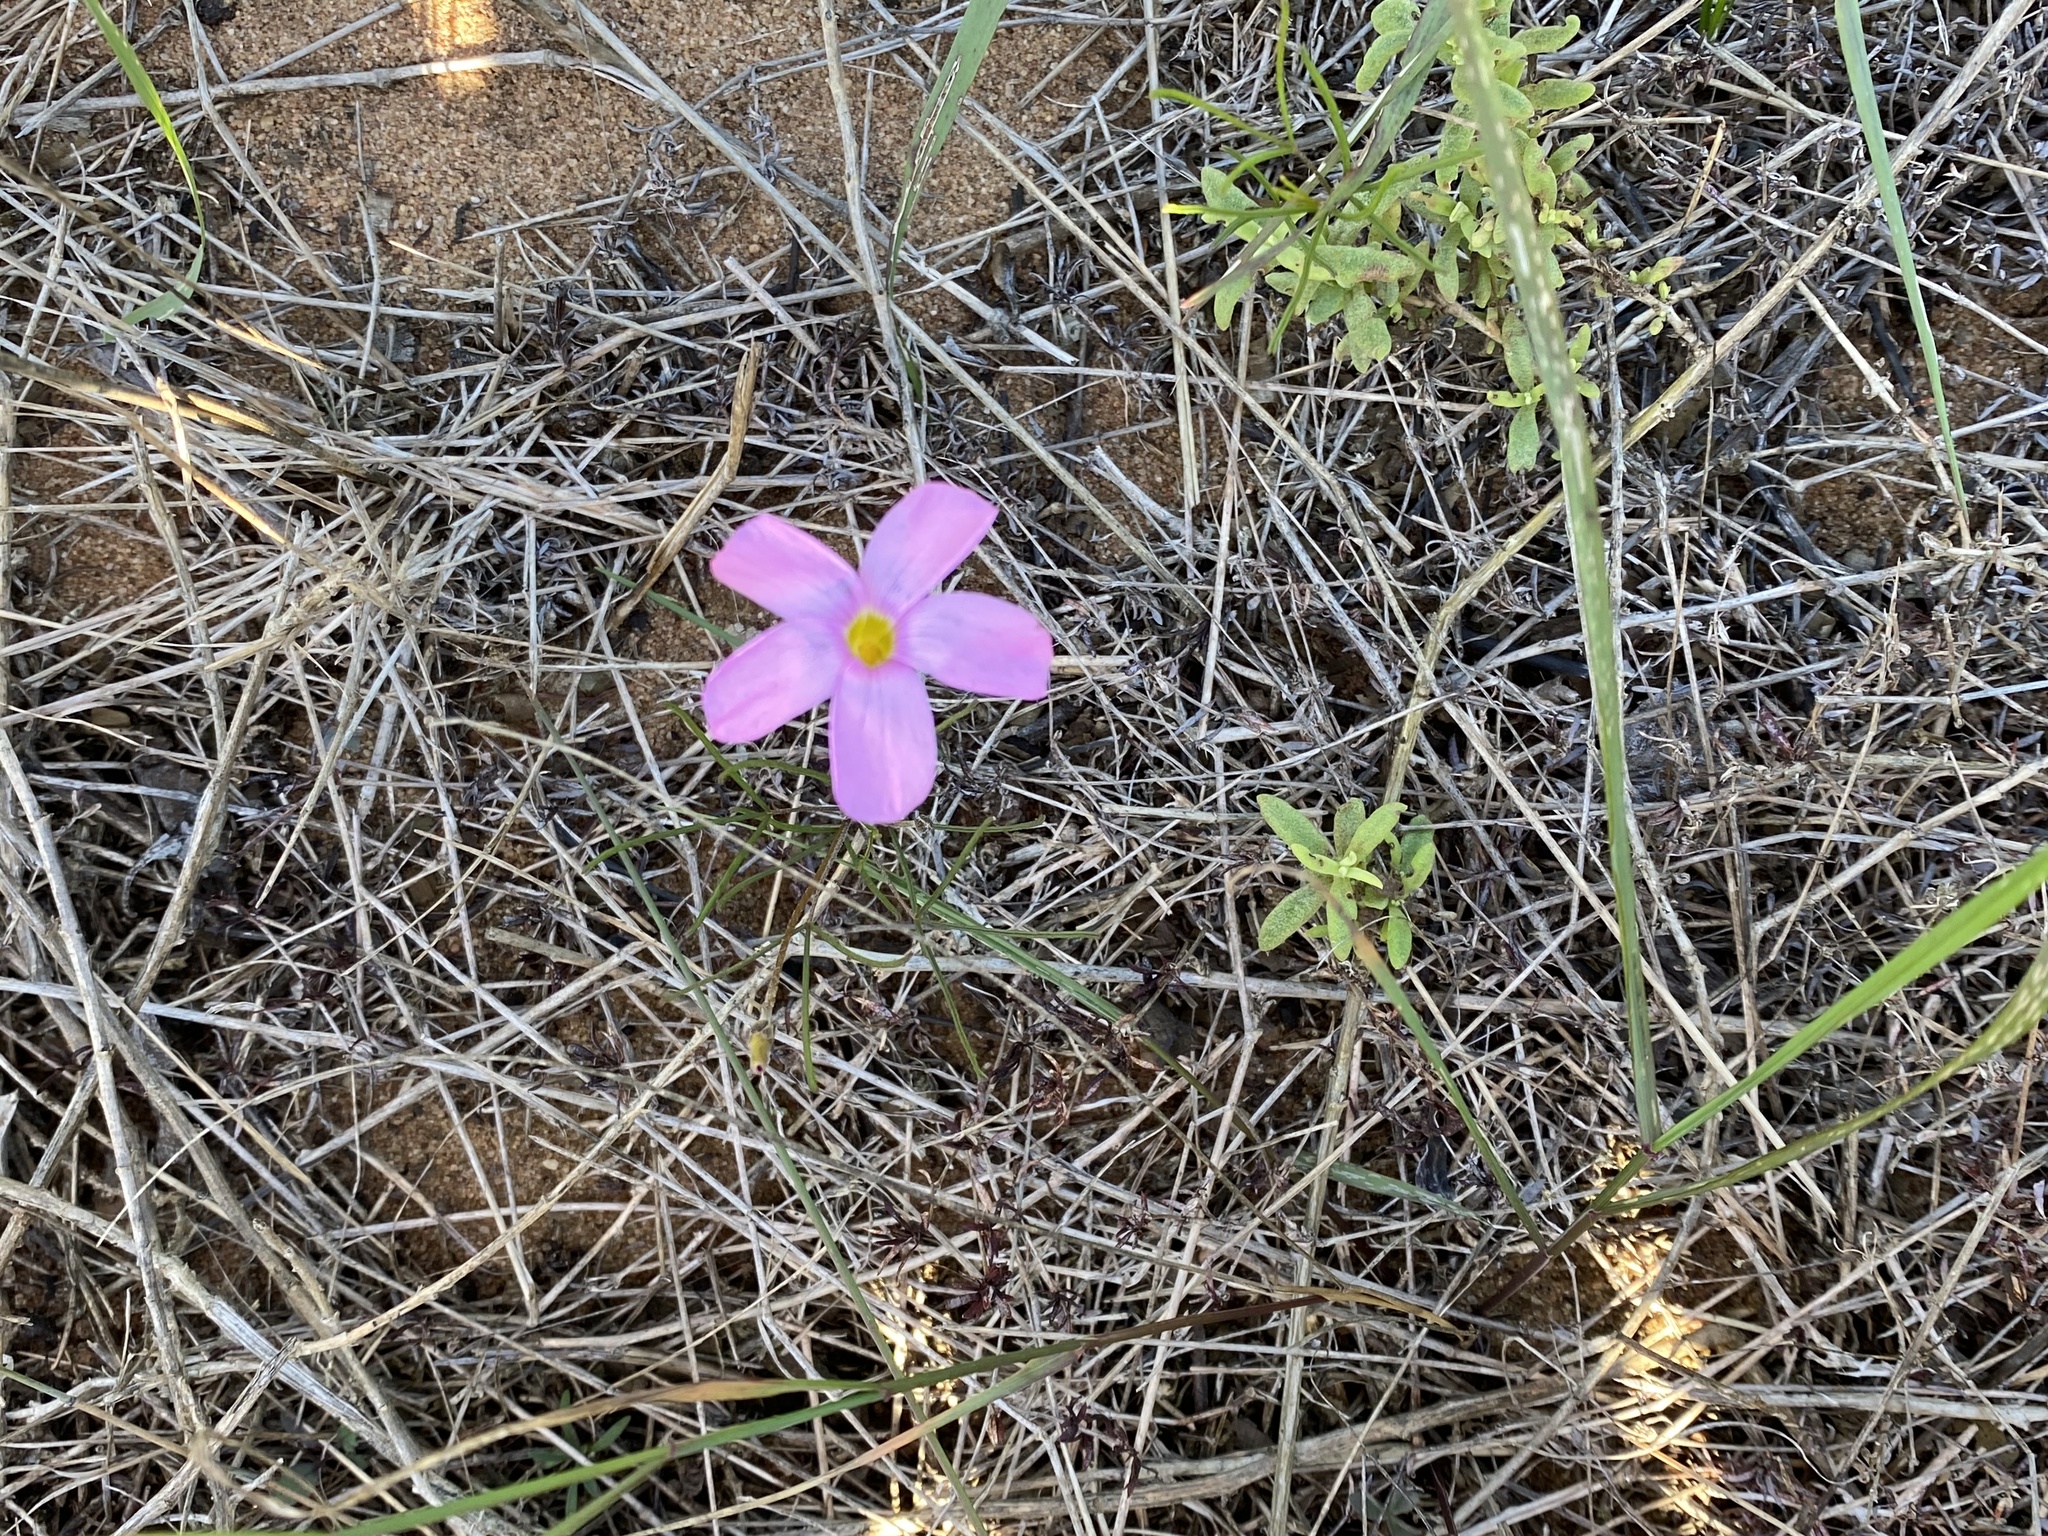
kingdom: Plantae
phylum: Tracheophyta
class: Magnoliopsida
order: Oxalidales
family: Oxalidaceae
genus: Oxalis
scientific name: Oxalis polyphylla
